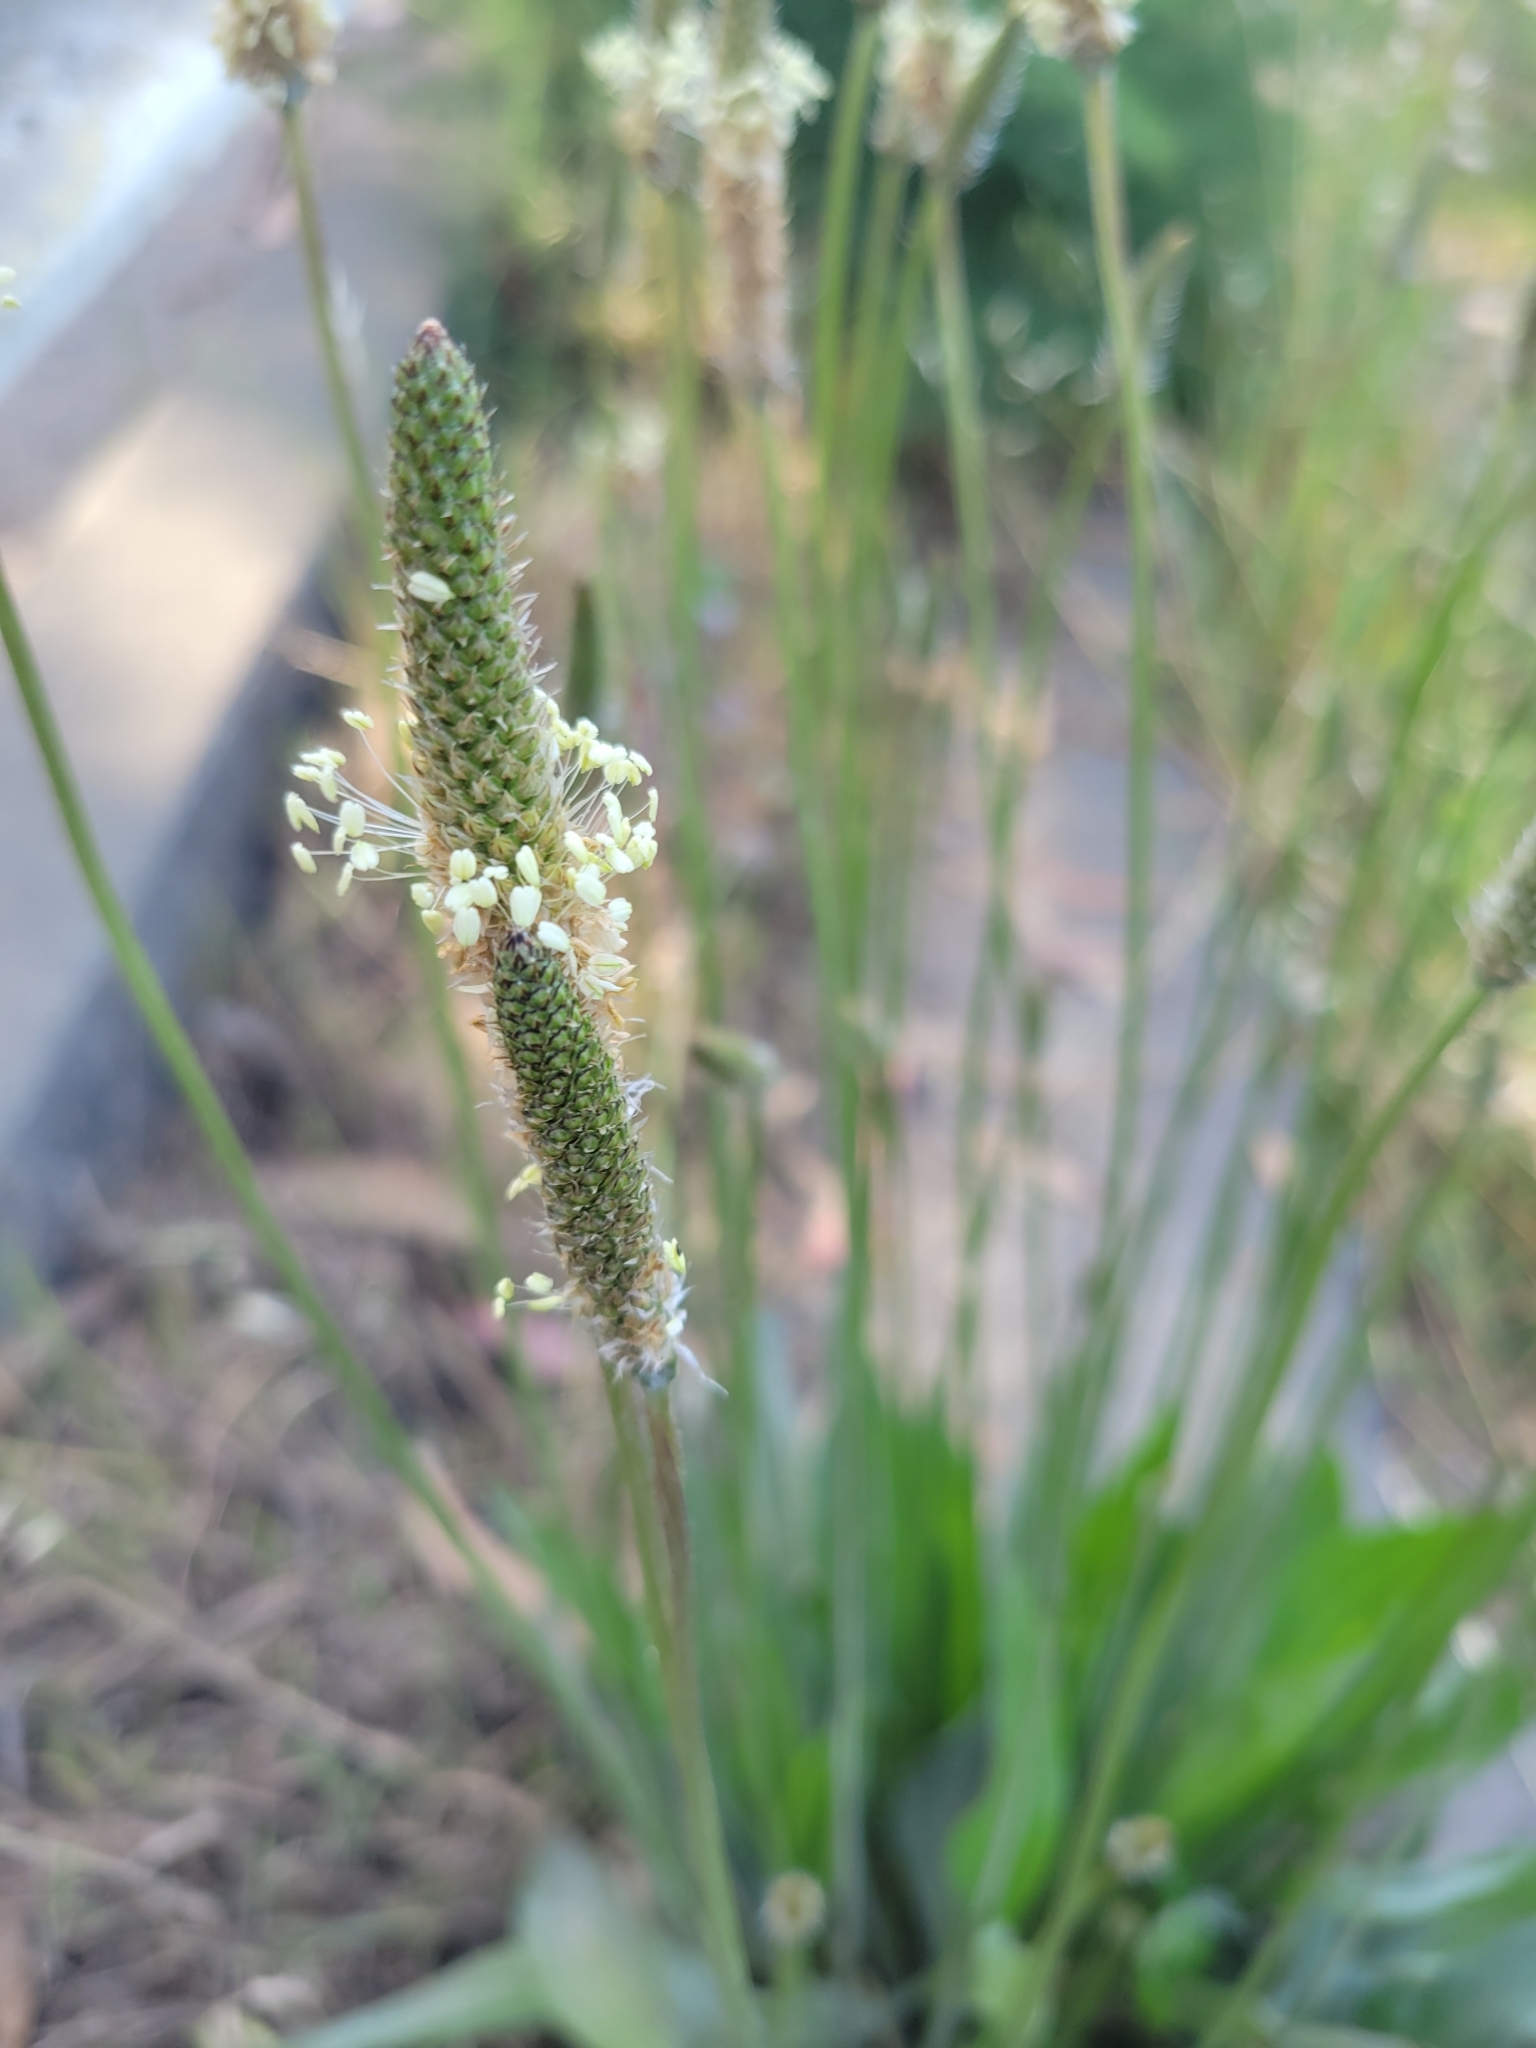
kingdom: Plantae
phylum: Tracheophyta
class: Magnoliopsida
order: Lamiales
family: Plantaginaceae
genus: Plantago
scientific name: Plantago lanceolata
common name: Ribwort plantain
